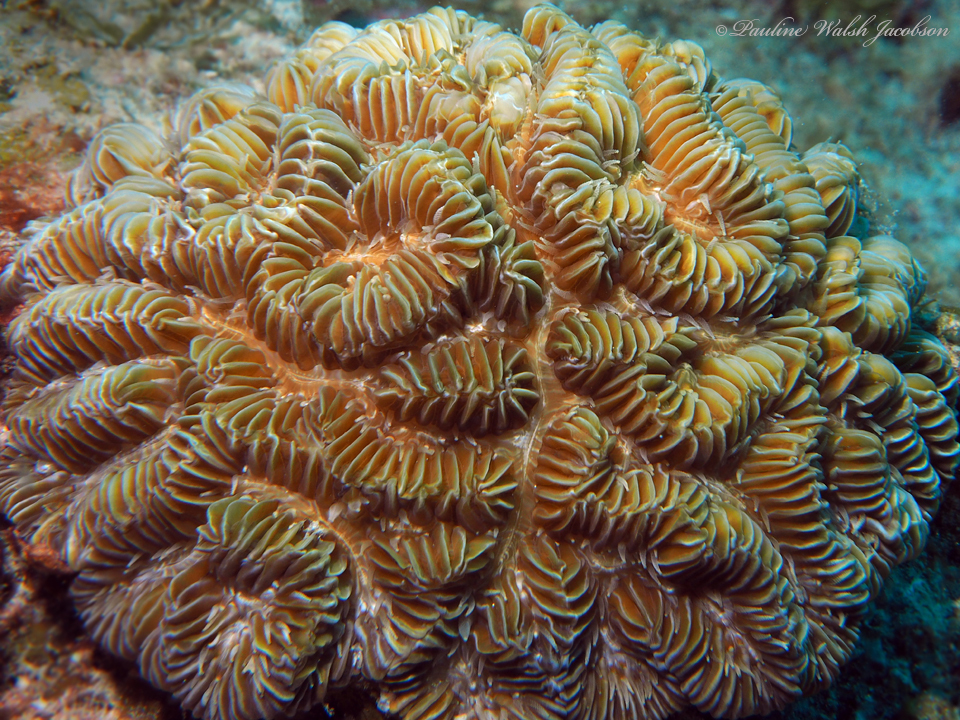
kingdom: Animalia
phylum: Cnidaria
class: Anthozoa
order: Scleractinia
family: Meandrinidae
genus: Meandrina
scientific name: Meandrina meandrites
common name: Maze coral
